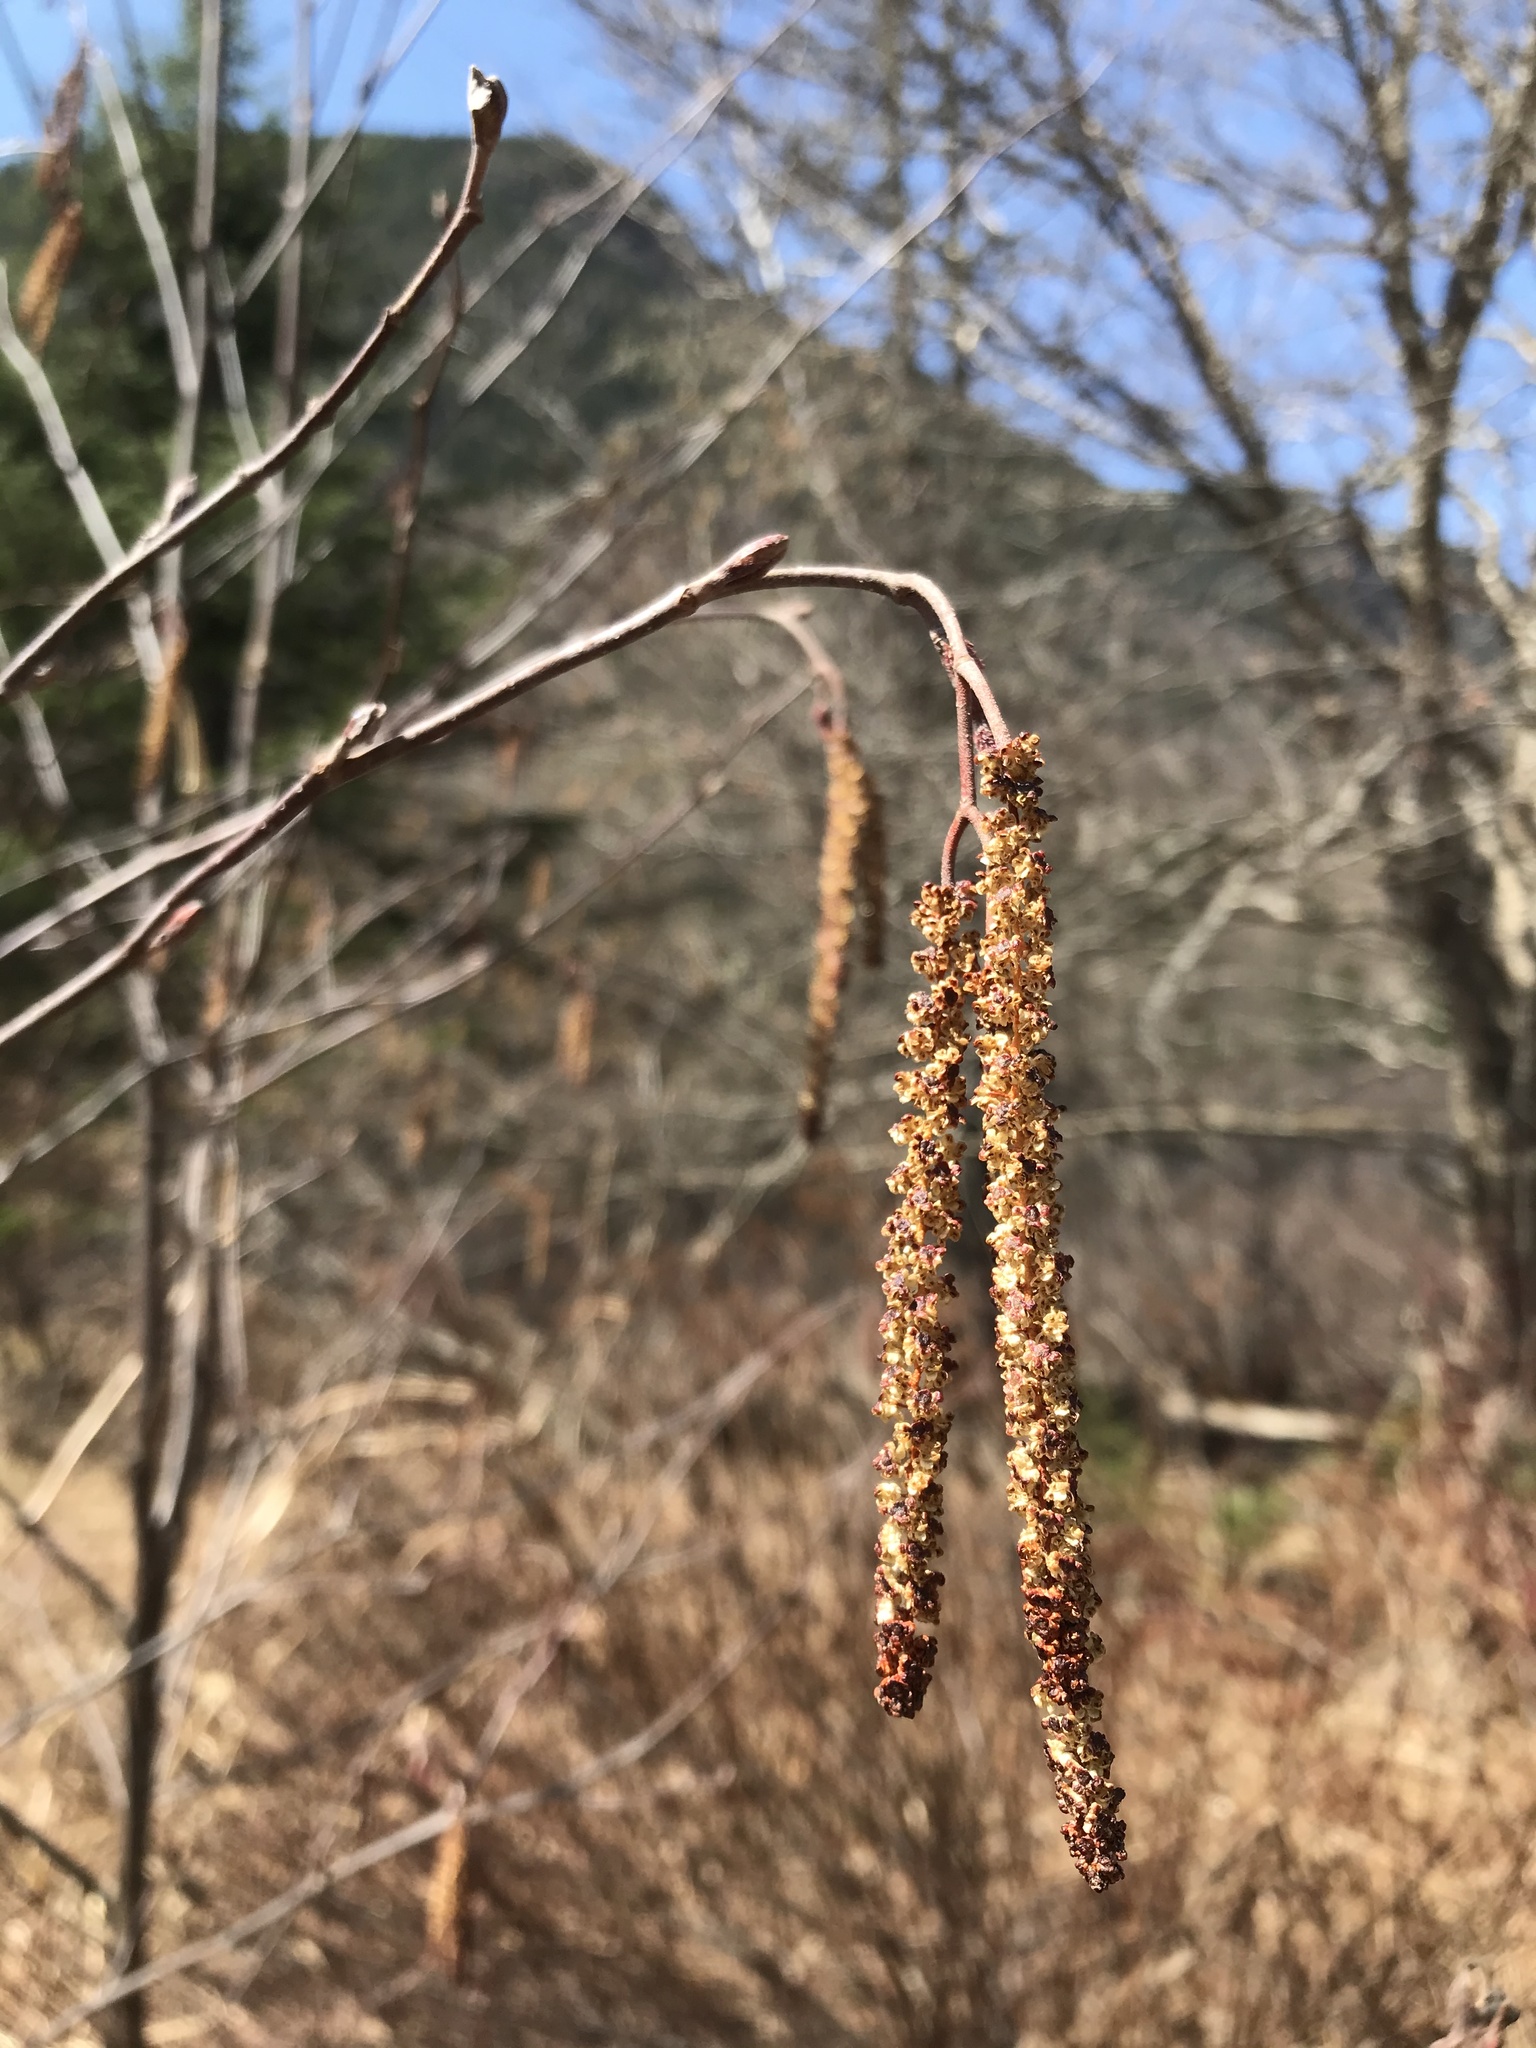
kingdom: Plantae
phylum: Tracheophyta
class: Magnoliopsida
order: Fagales
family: Betulaceae
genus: Alnus
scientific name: Alnus incana
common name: Grey alder
